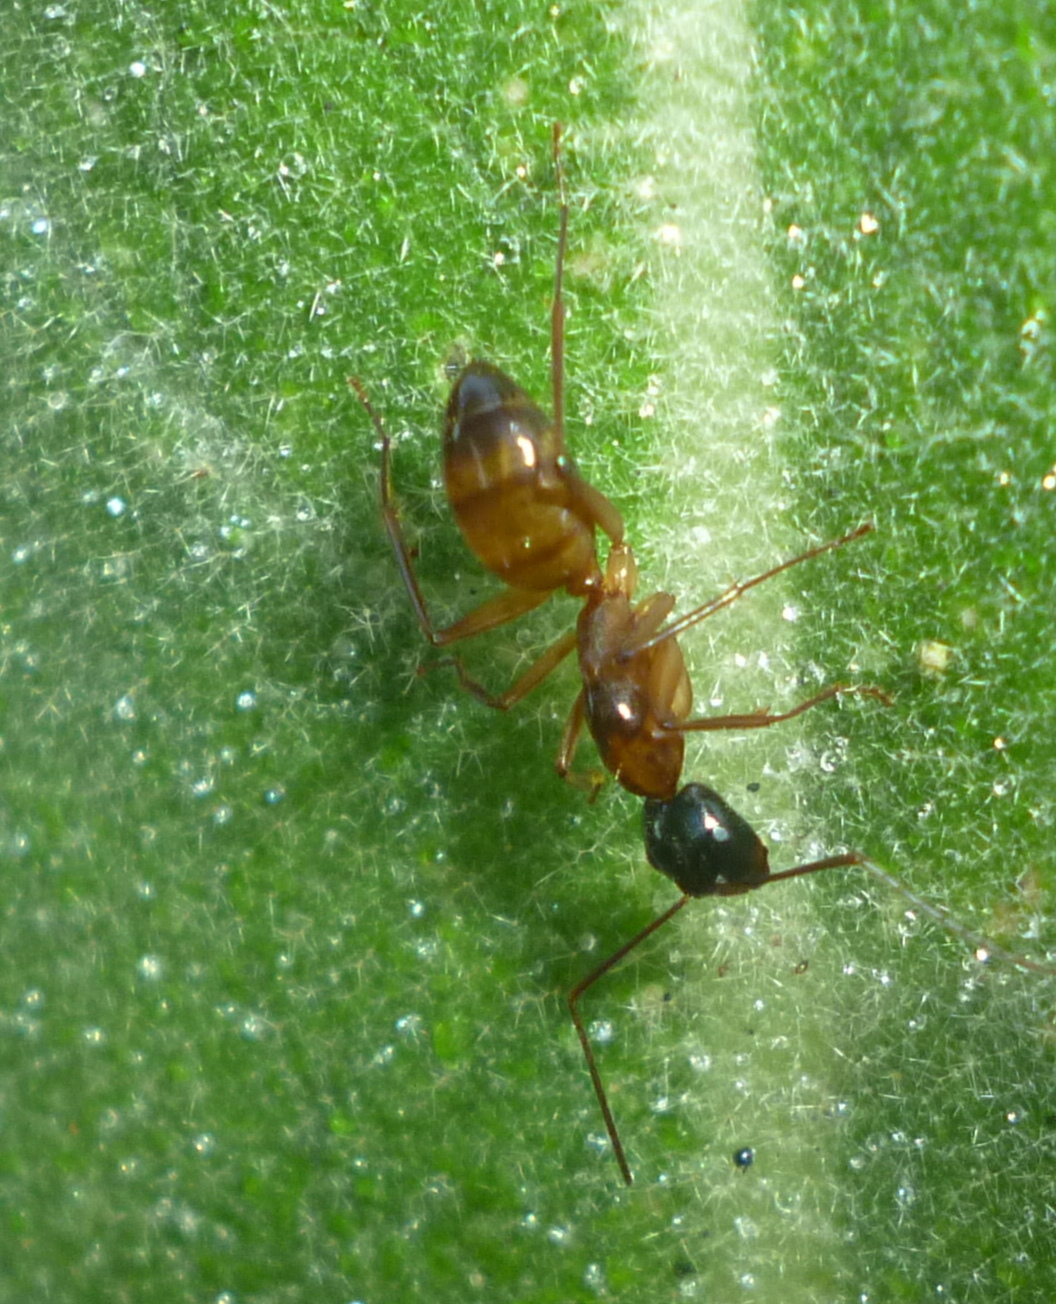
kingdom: Animalia
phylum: Arthropoda
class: Insecta
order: Hymenoptera
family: Formicidae
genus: Camponotus
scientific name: Camponotus americanus
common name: American carpenter ant
